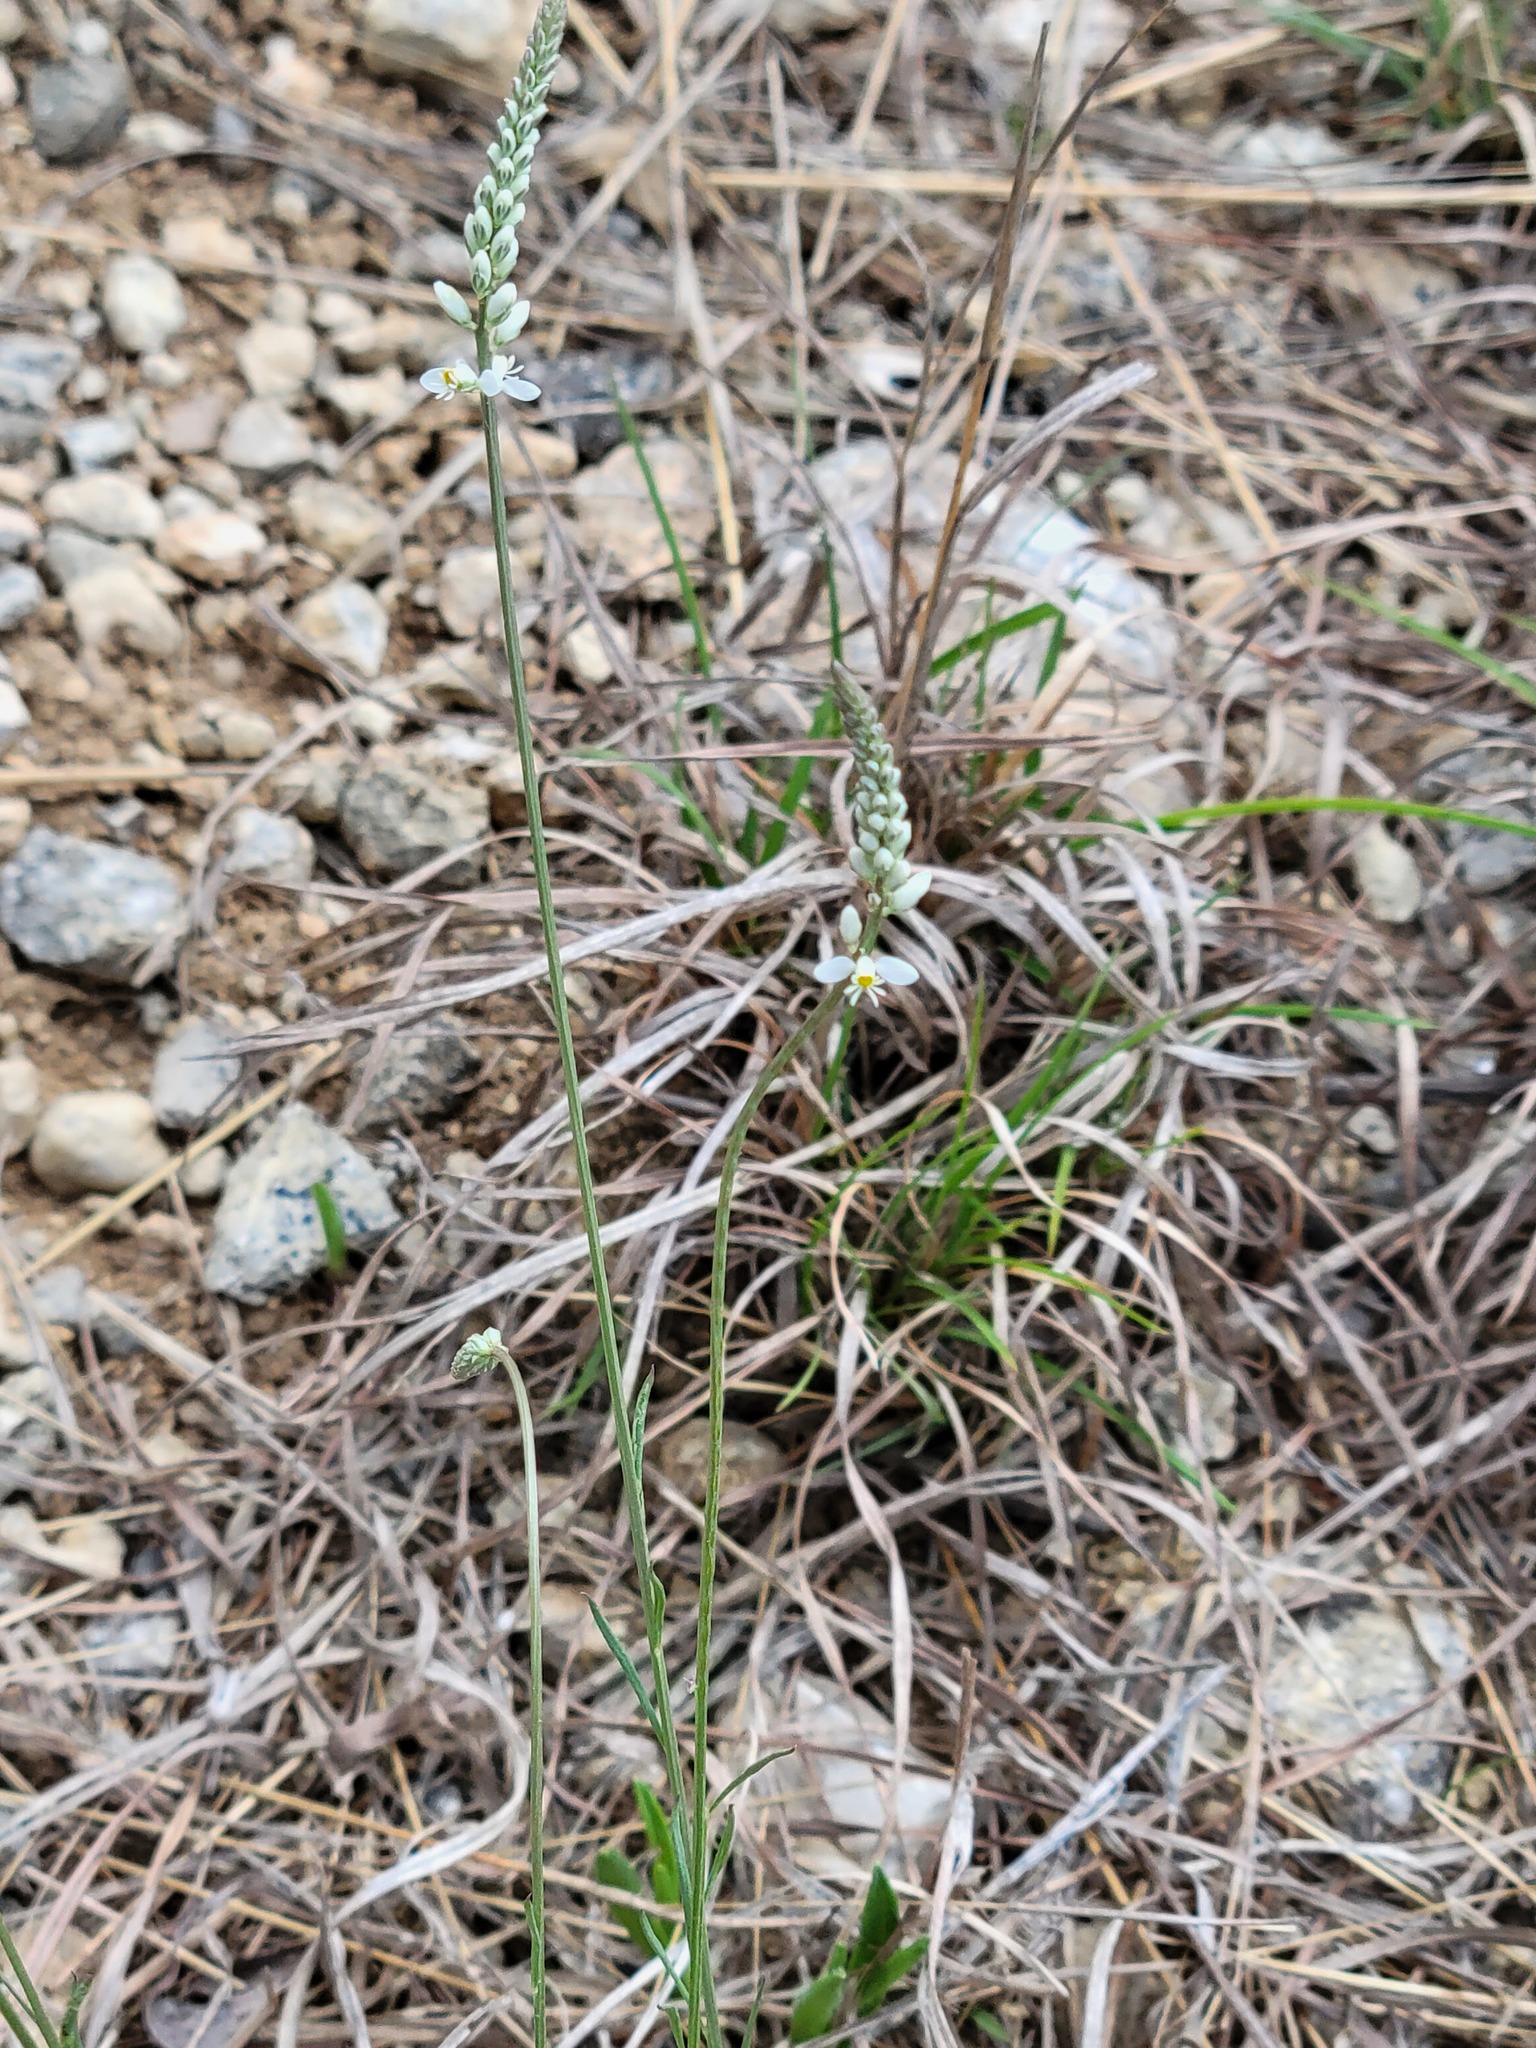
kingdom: Plantae
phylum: Tracheophyta
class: Magnoliopsida
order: Fabales
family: Polygalaceae
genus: Polygala
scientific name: Polygala alba
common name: White milkwort
